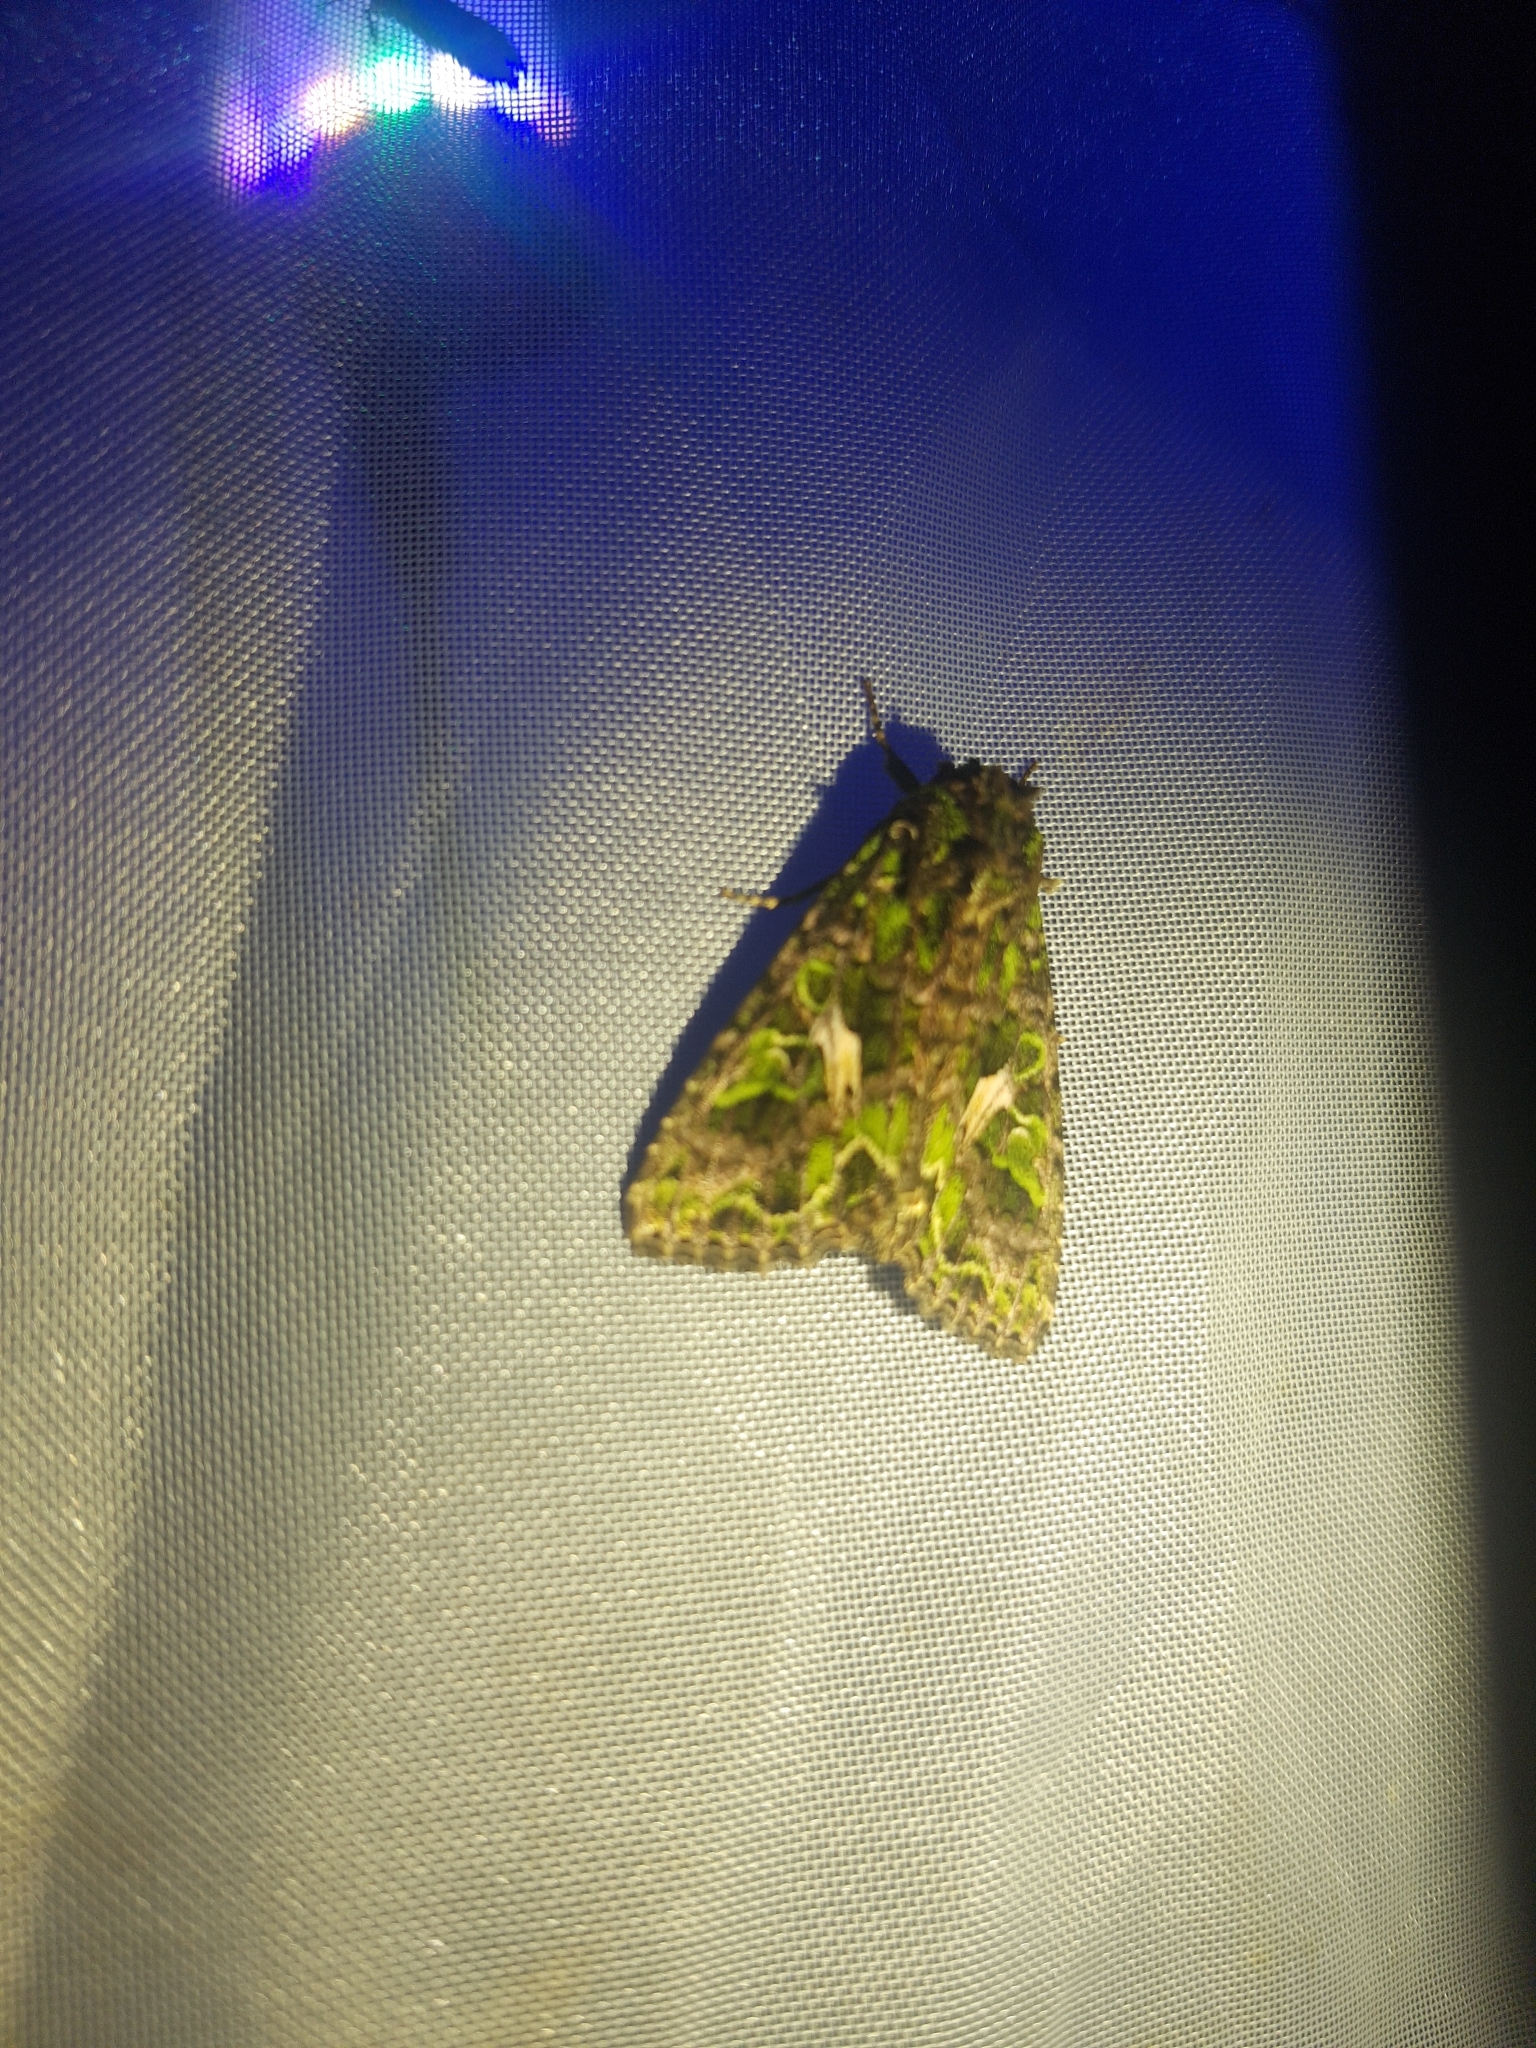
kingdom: Animalia
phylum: Arthropoda
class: Insecta
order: Lepidoptera
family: Noctuidae
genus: Trachea
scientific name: Trachea atriplicis
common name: Orache moth
